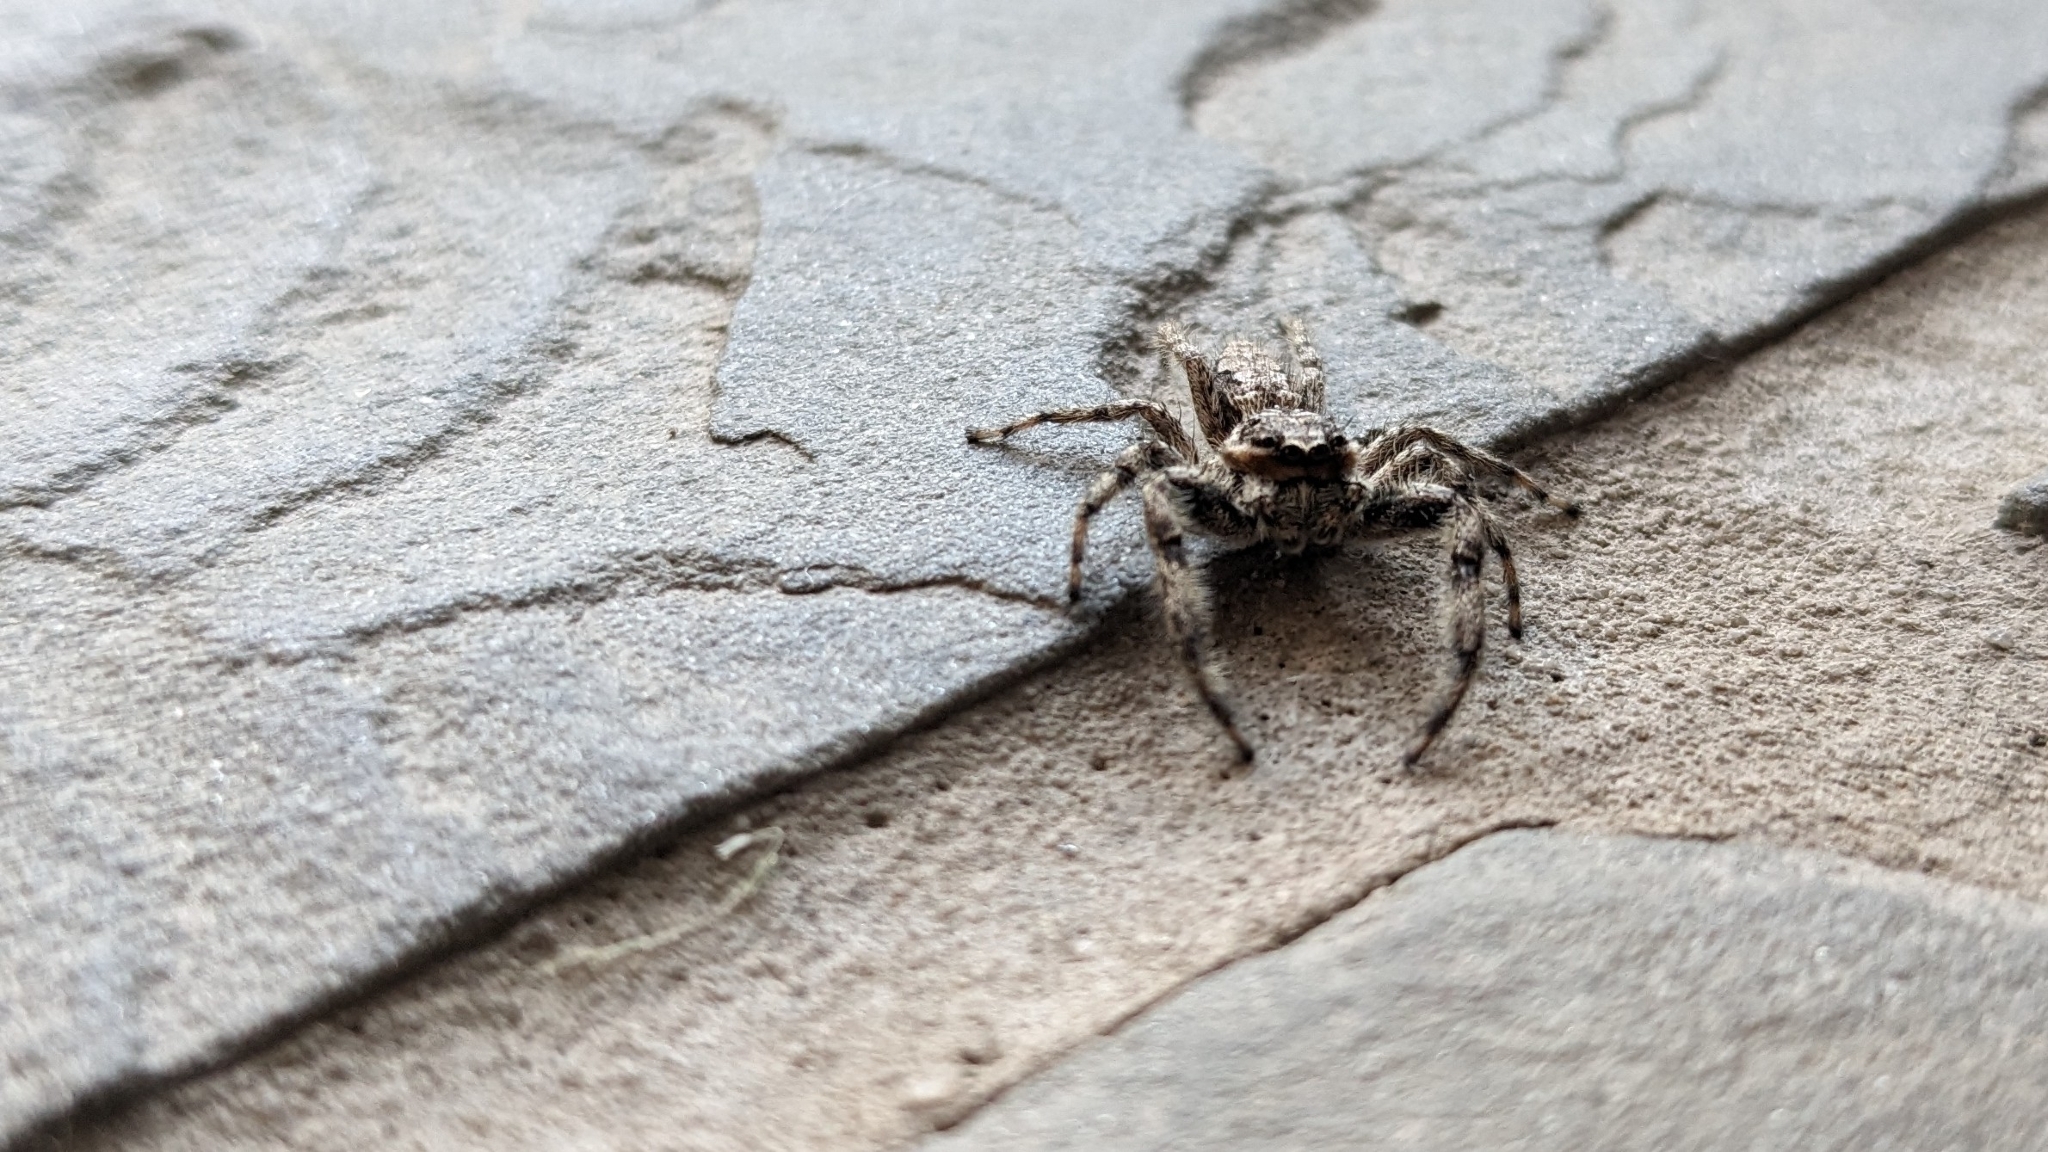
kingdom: Animalia
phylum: Arthropoda
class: Arachnida
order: Araneae
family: Salticidae
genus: Platycryptus
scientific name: Platycryptus undatus
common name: Tan jumping spider
